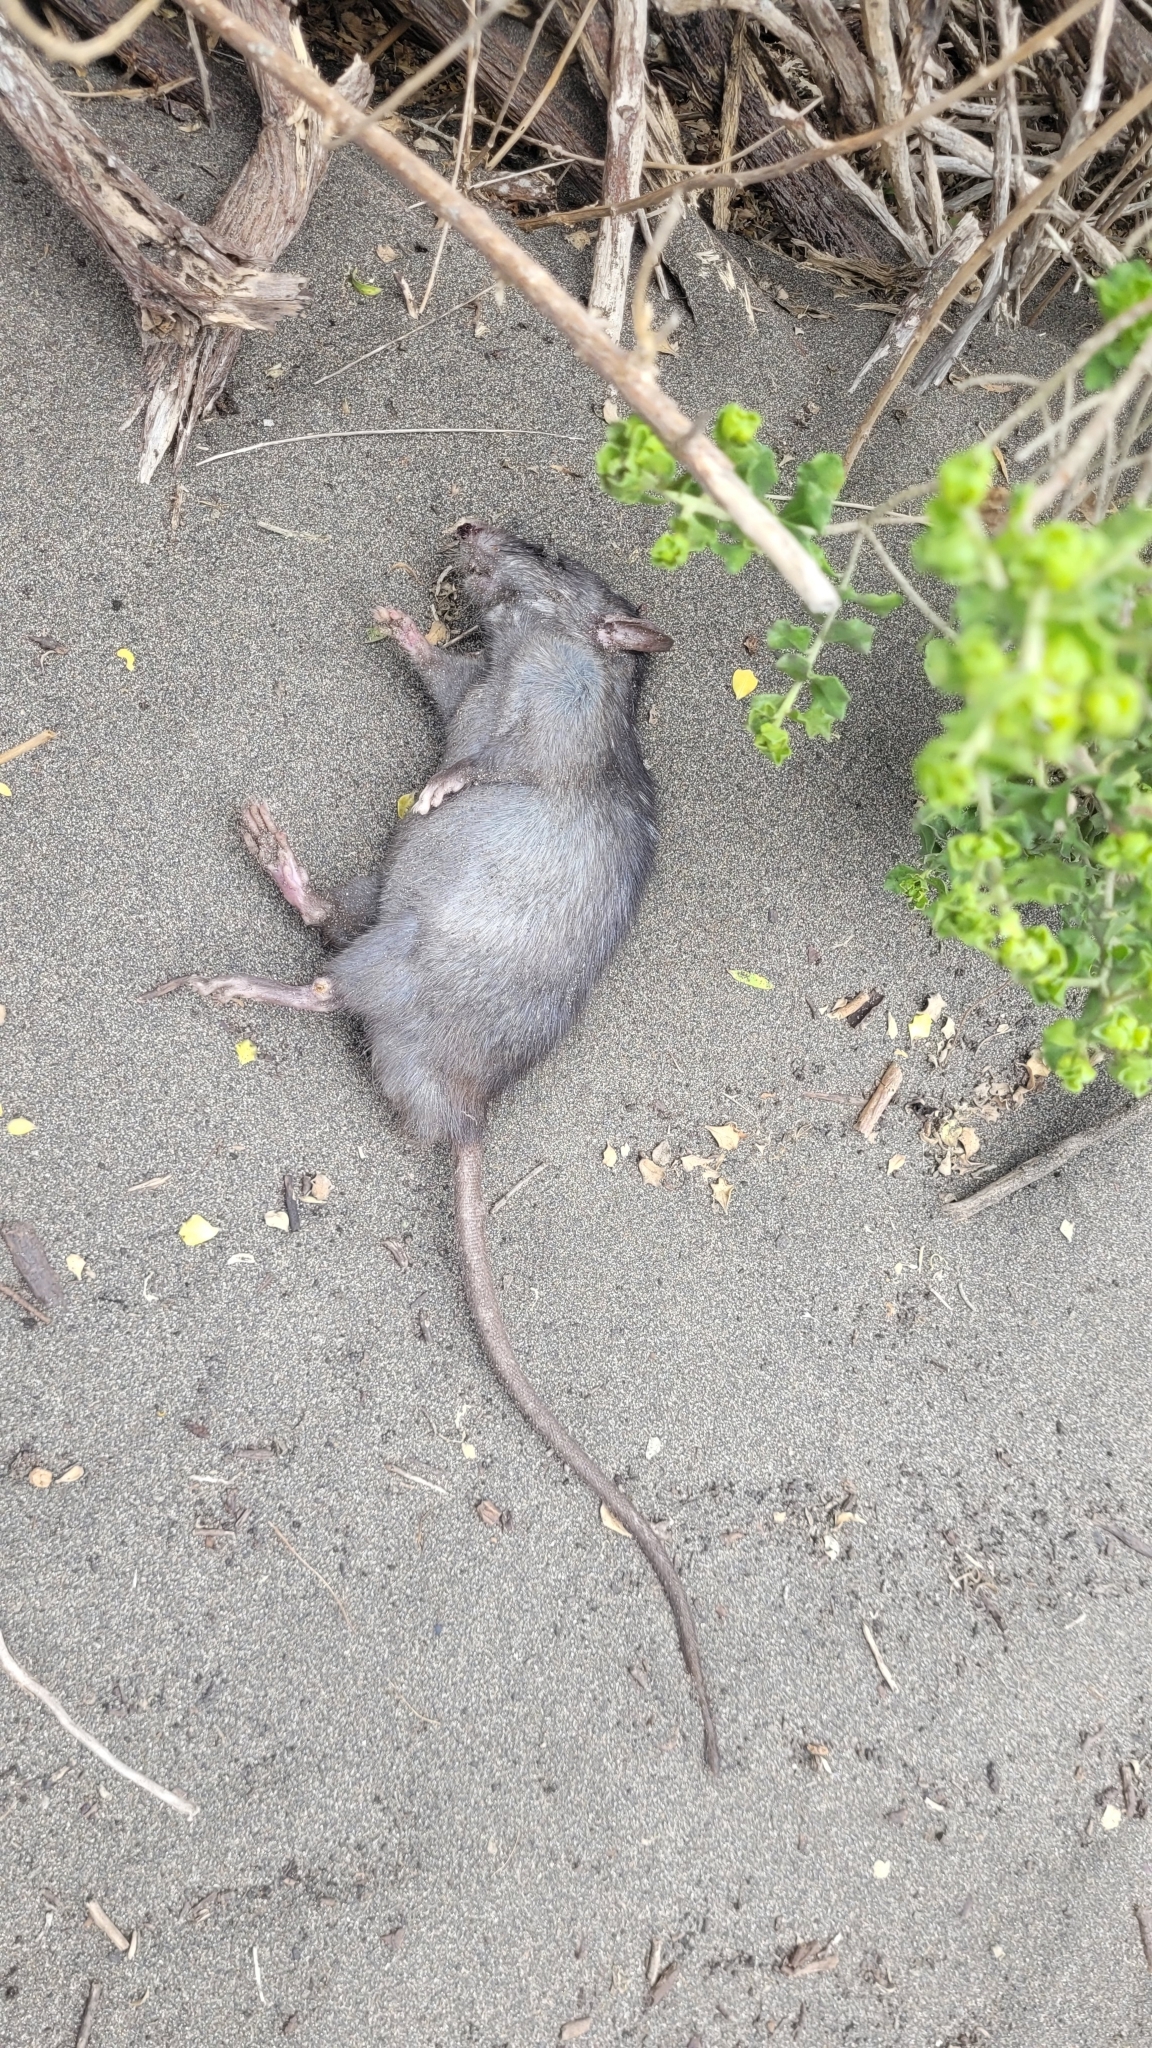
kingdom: Animalia
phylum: Chordata
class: Mammalia
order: Rodentia
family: Muridae
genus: Rattus
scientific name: Rattus rattus
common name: Black rat
